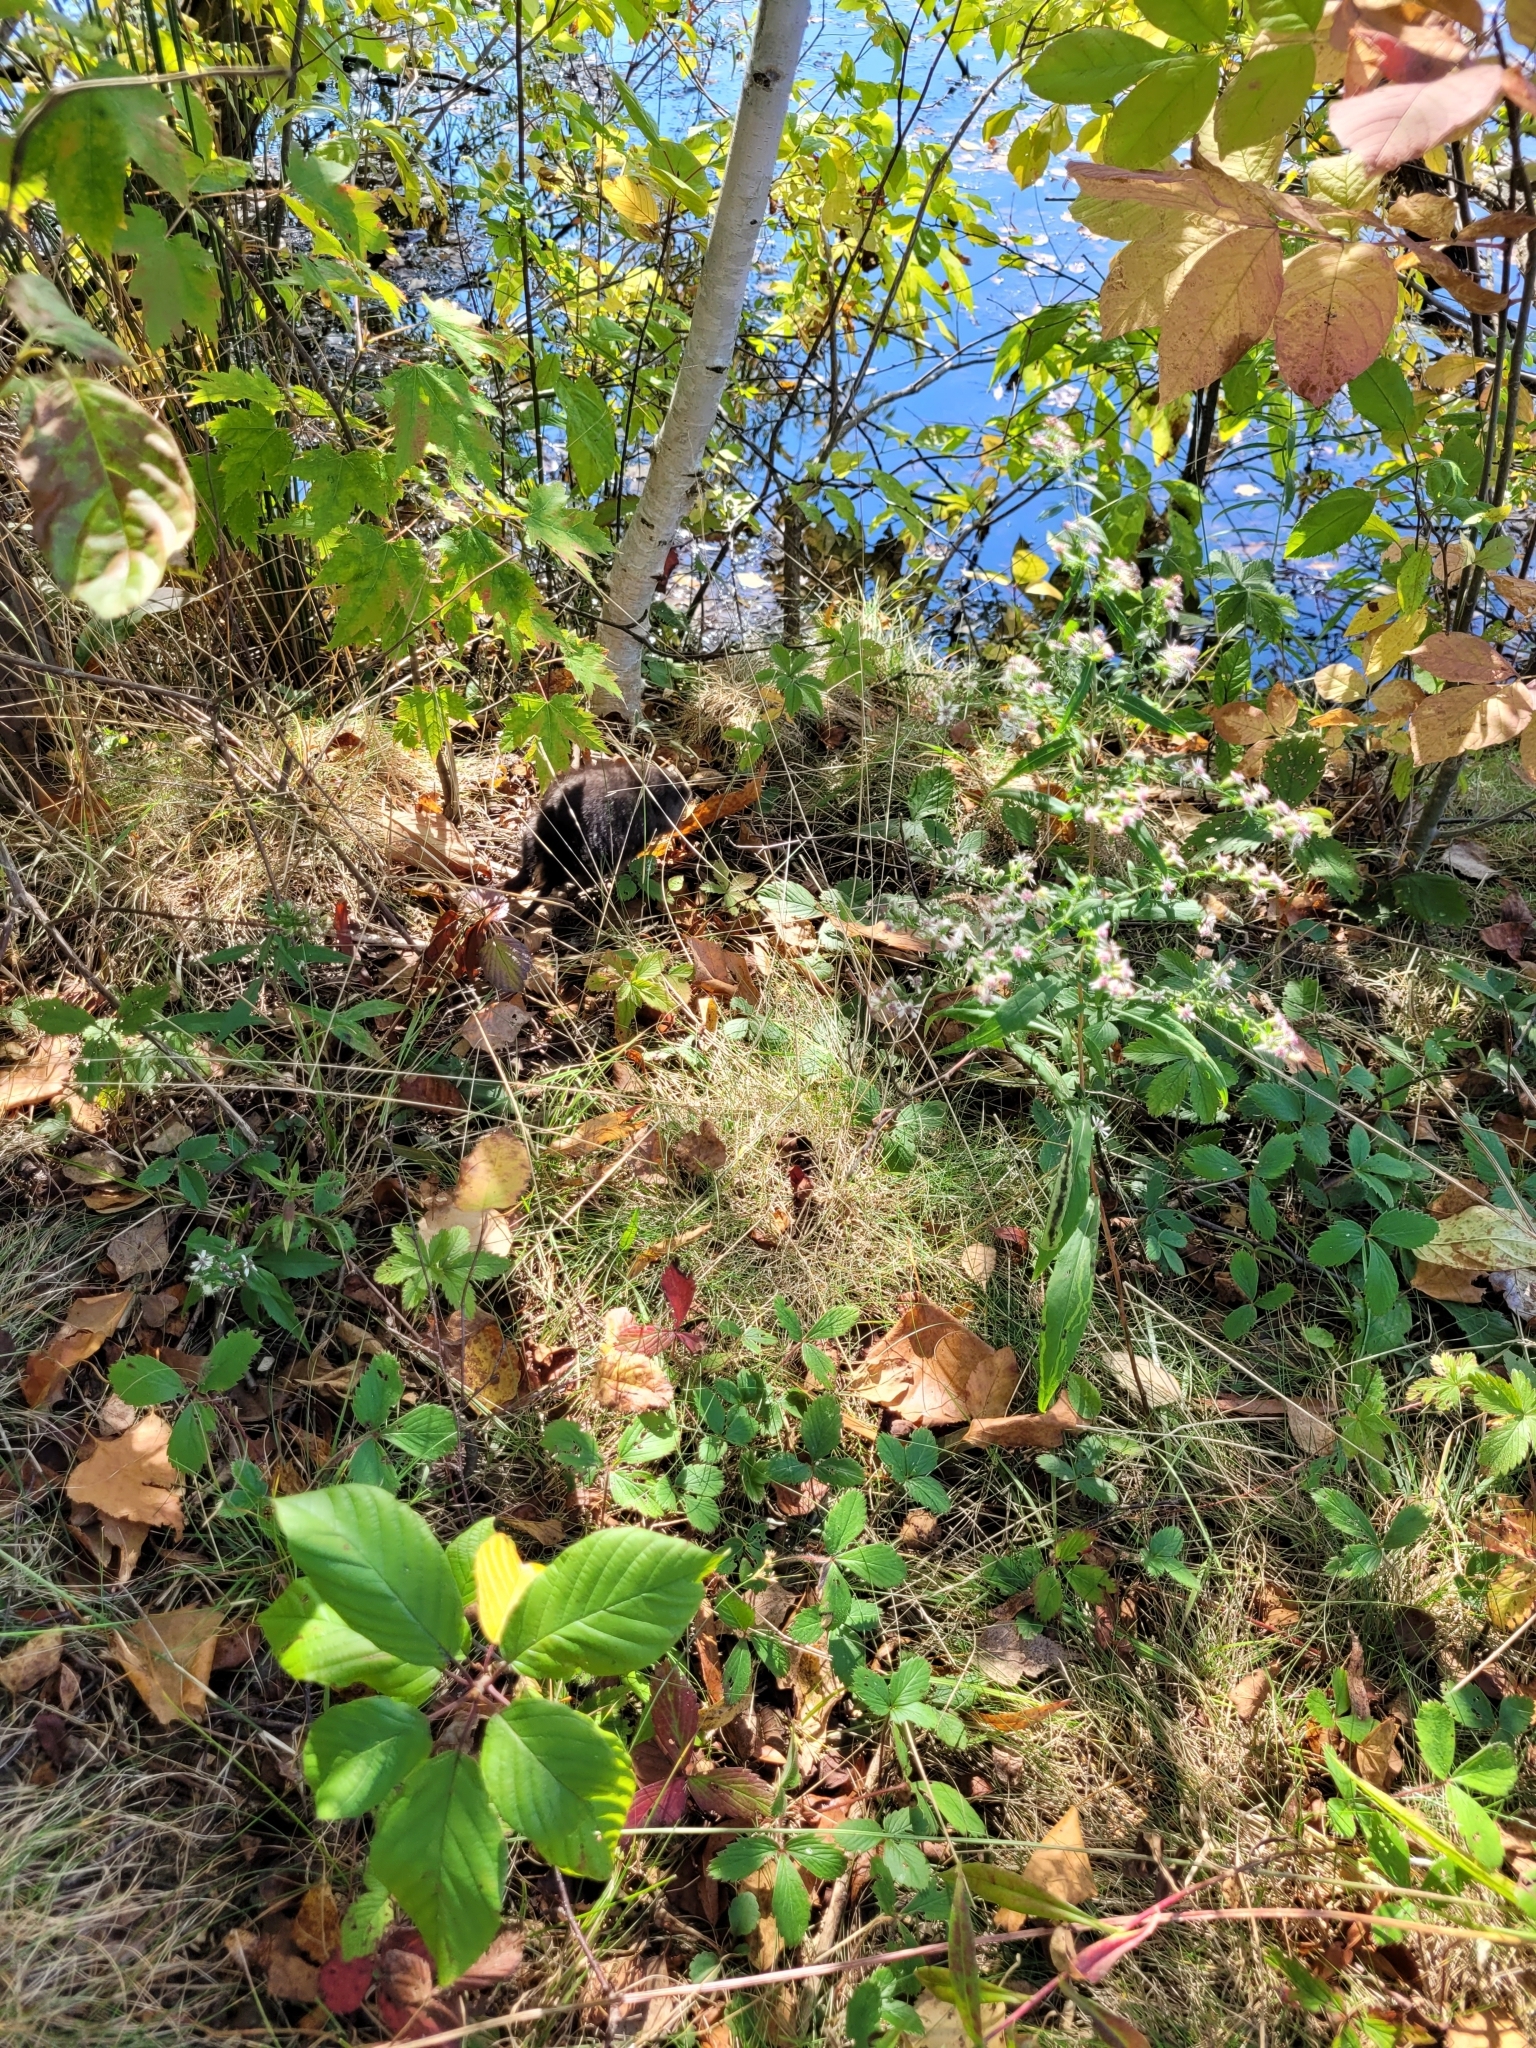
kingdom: Animalia
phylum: Chordata
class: Mammalia
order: Rodentia
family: Cricetidae
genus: Ondatra
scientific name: Ondatra zibethicus
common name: Muskrat
